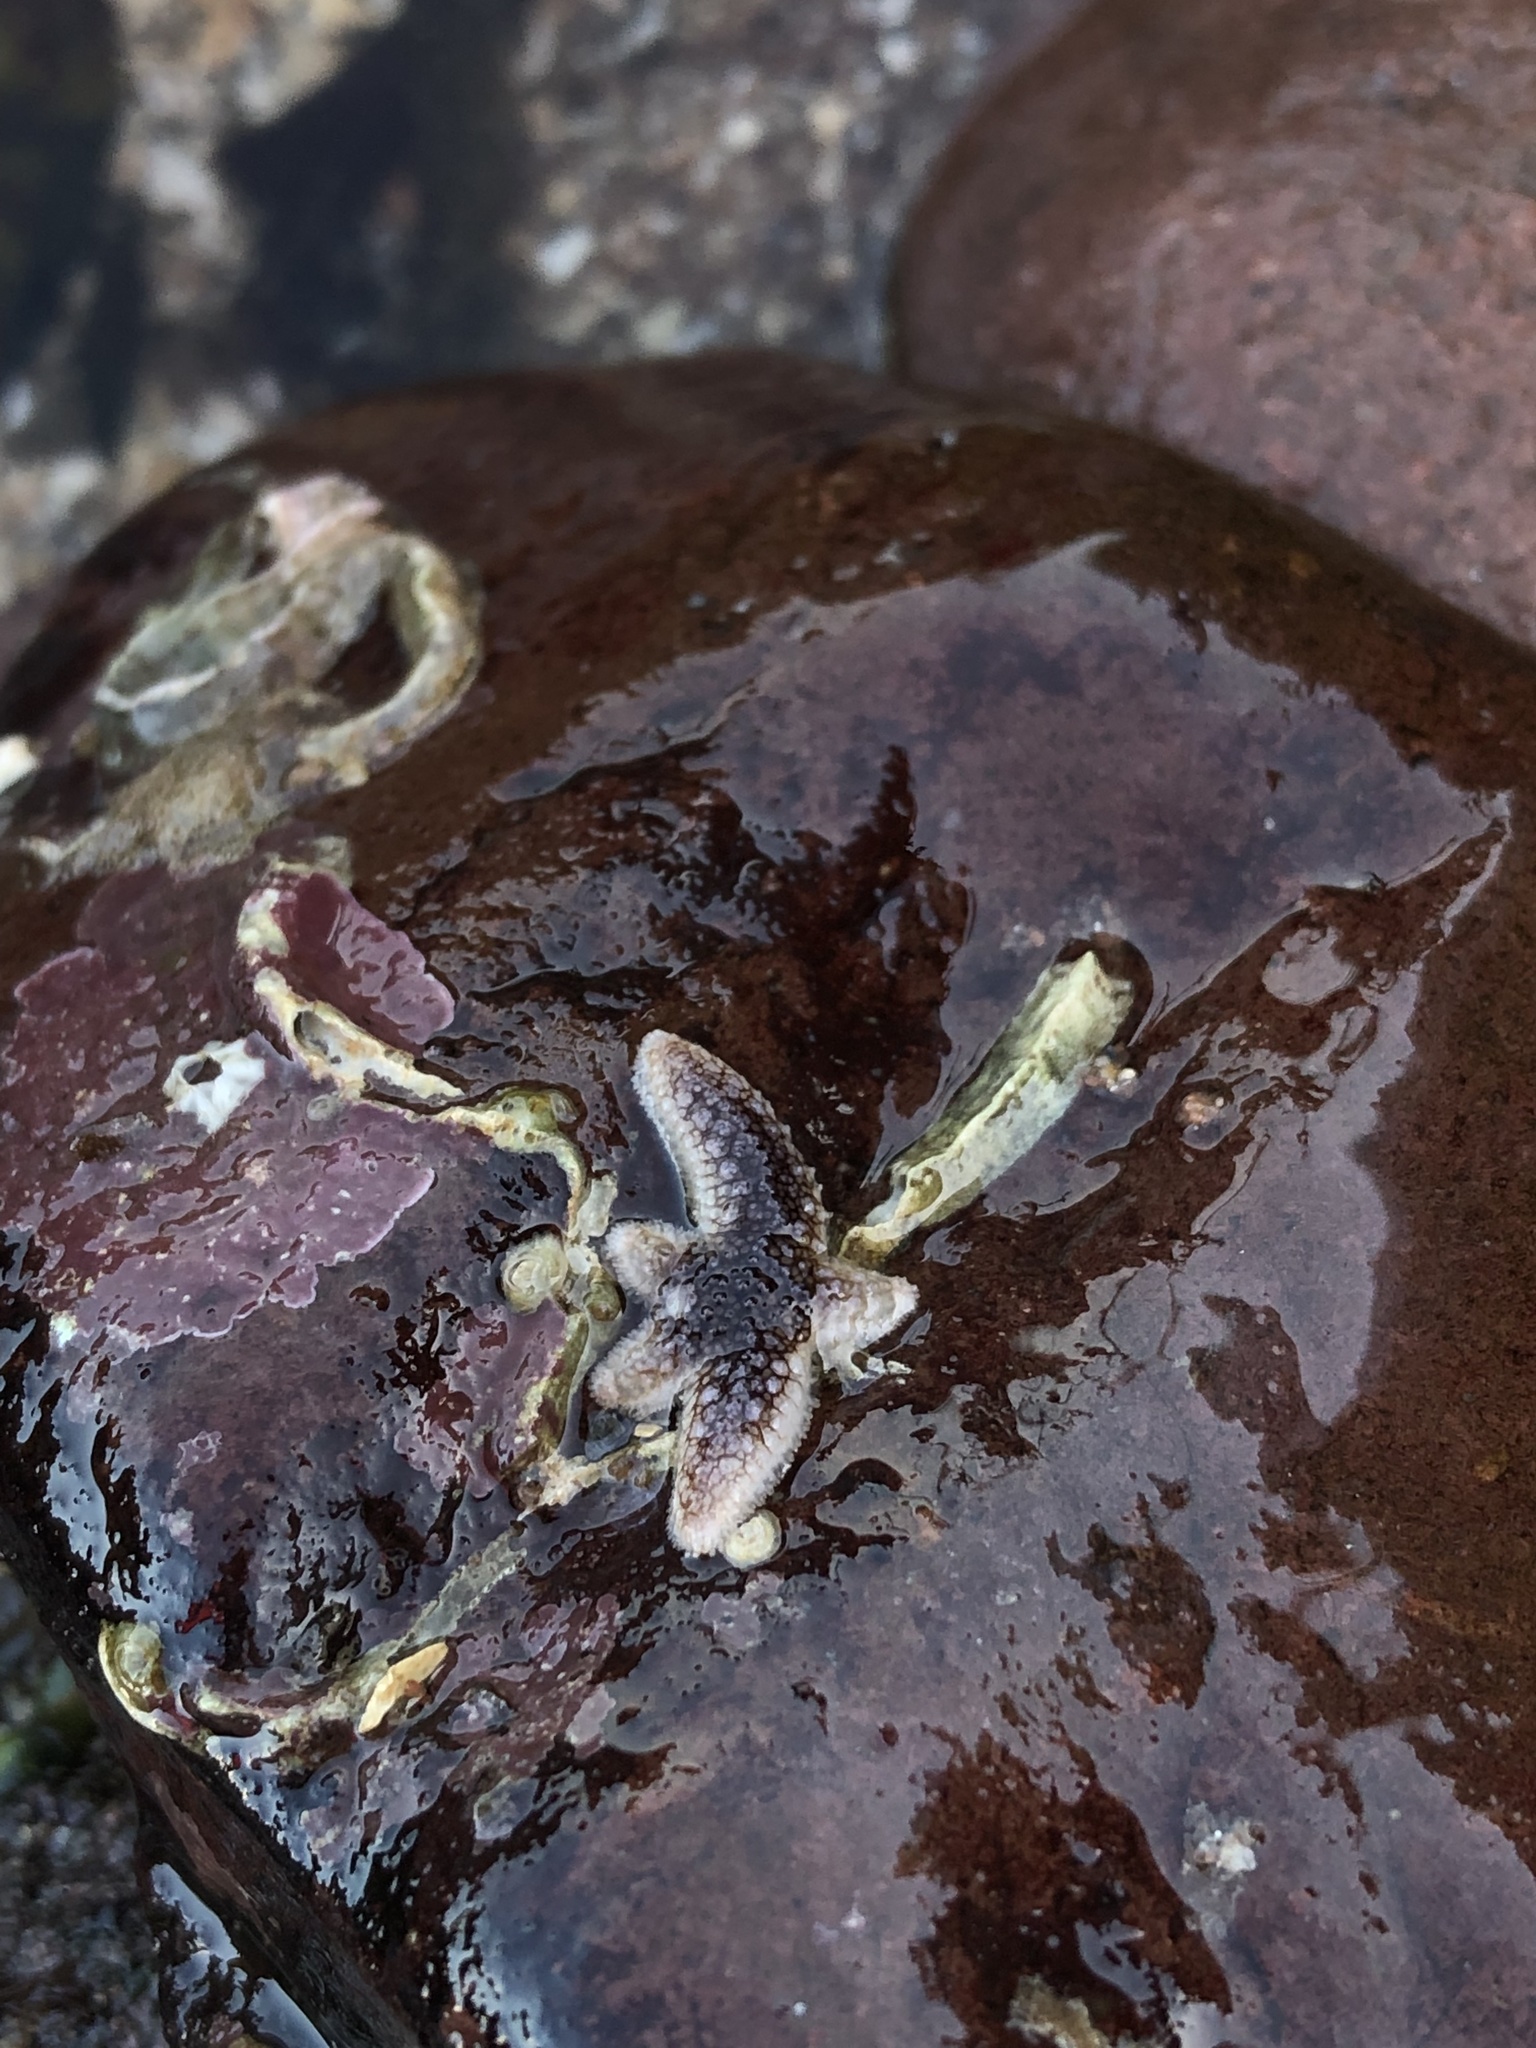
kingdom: Animalia
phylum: Echinodermata
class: Asteroidea
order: Forcipulatida
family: Asteriidae
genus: Asterias
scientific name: Asterias rubens
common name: Common starfish
